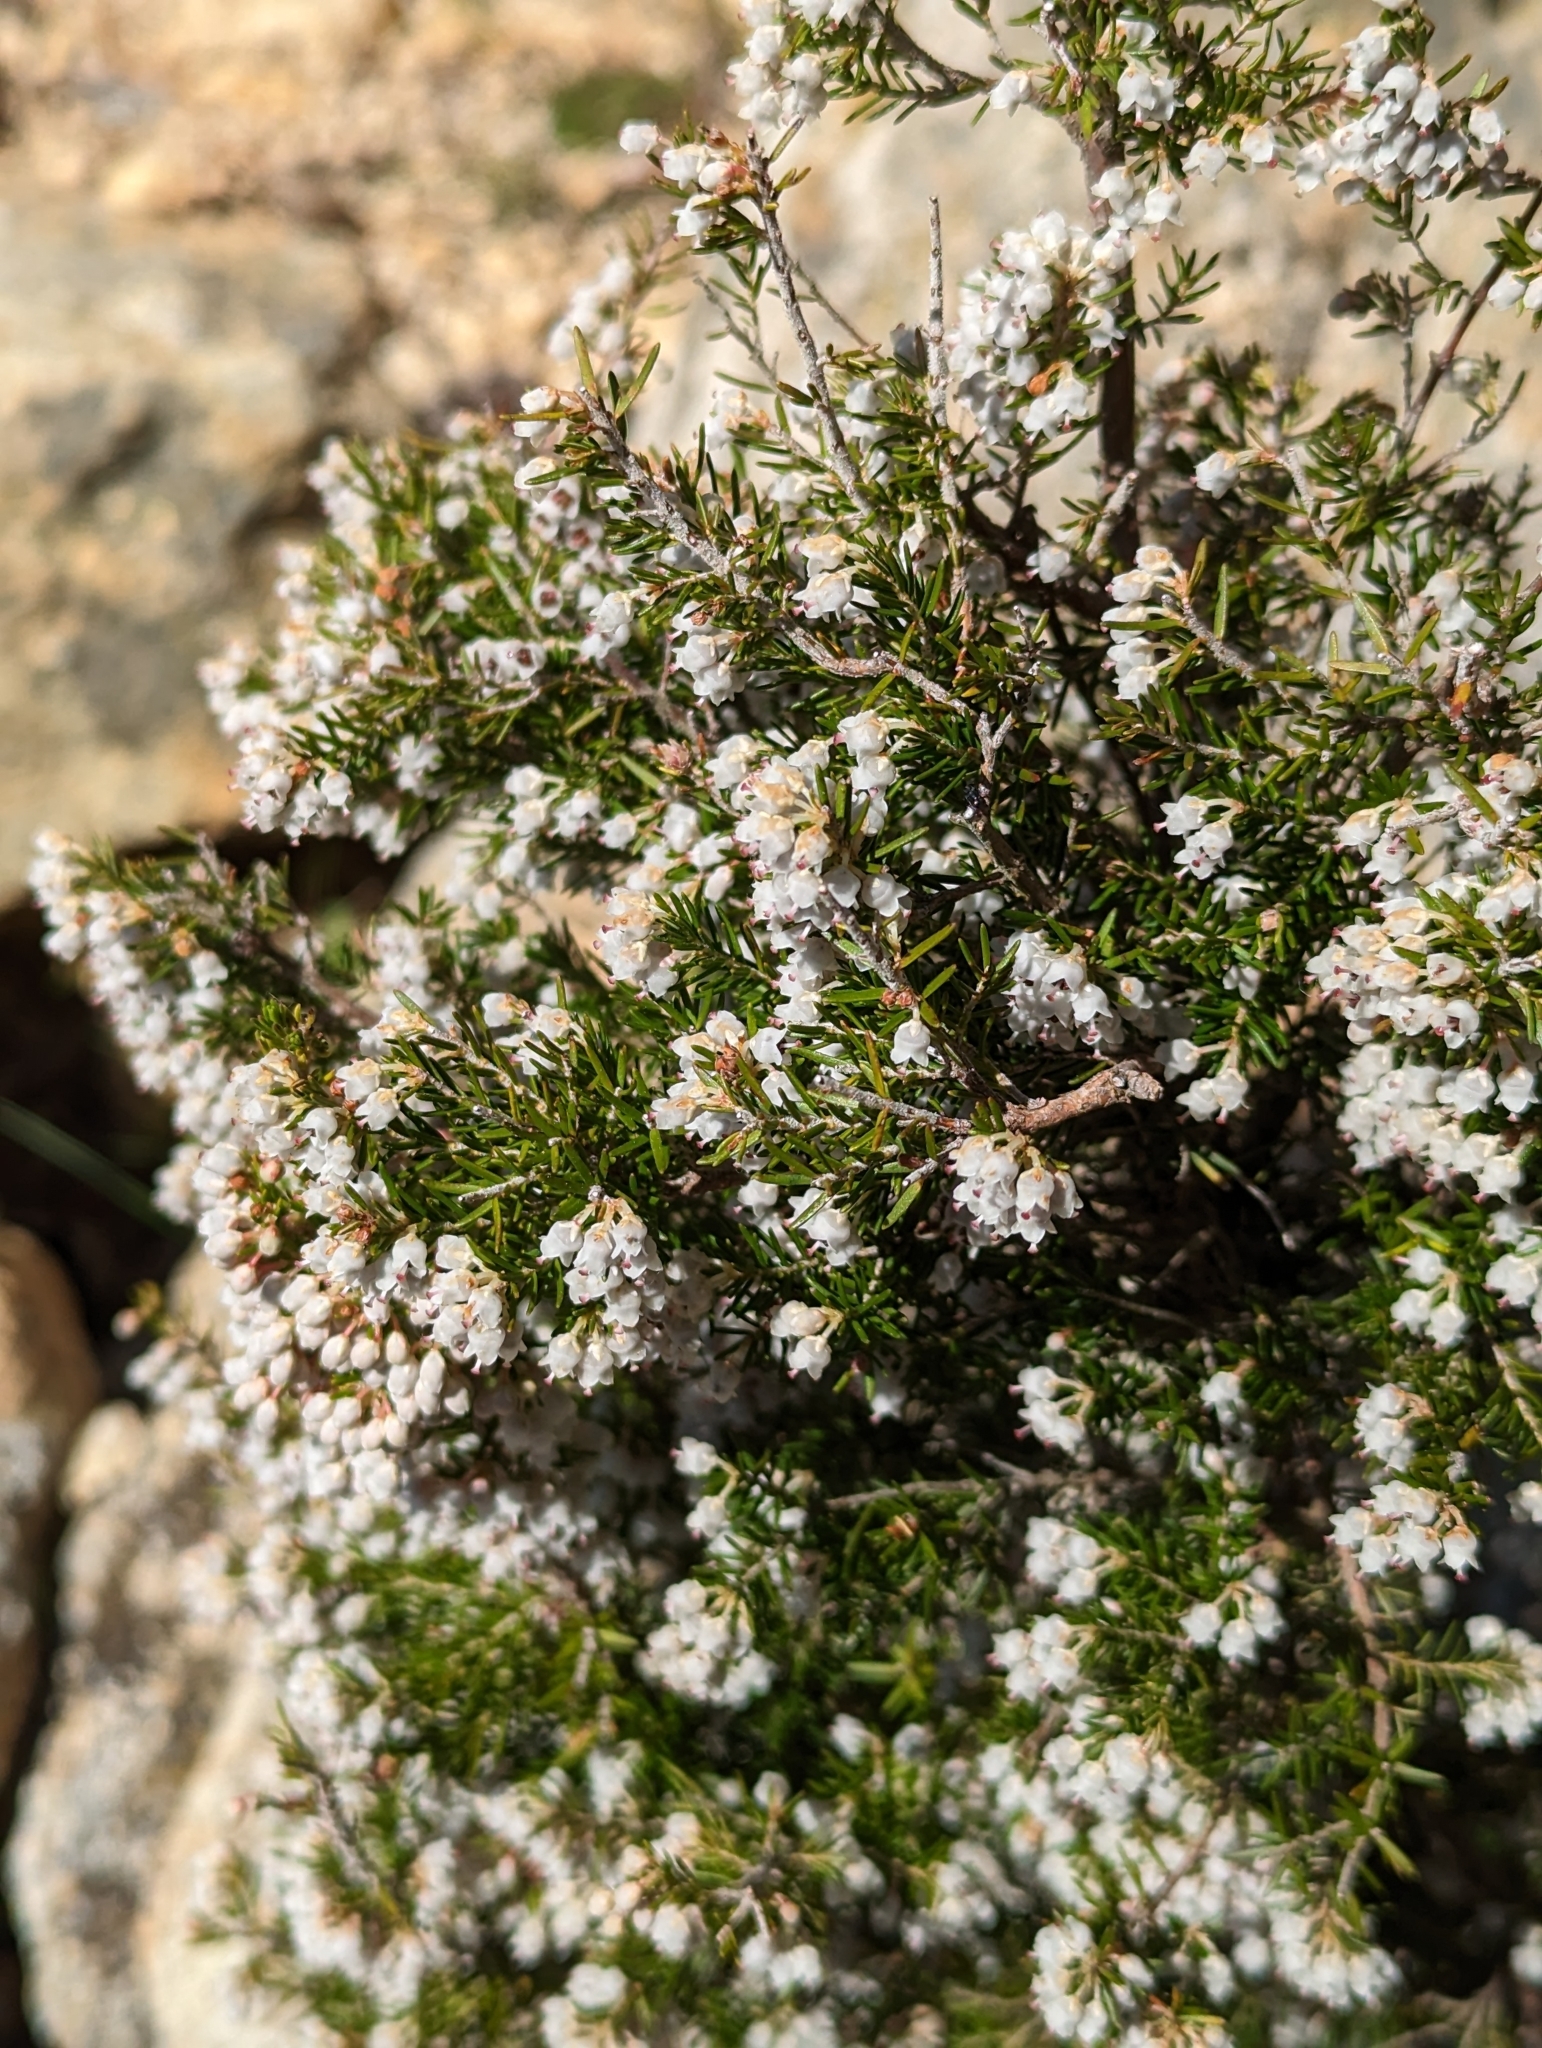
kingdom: Plantae
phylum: Tracheophyta
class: Magnoliopsida
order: Ericales
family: Ericaceae
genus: Erica
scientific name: Erica arborea
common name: Tree heath
